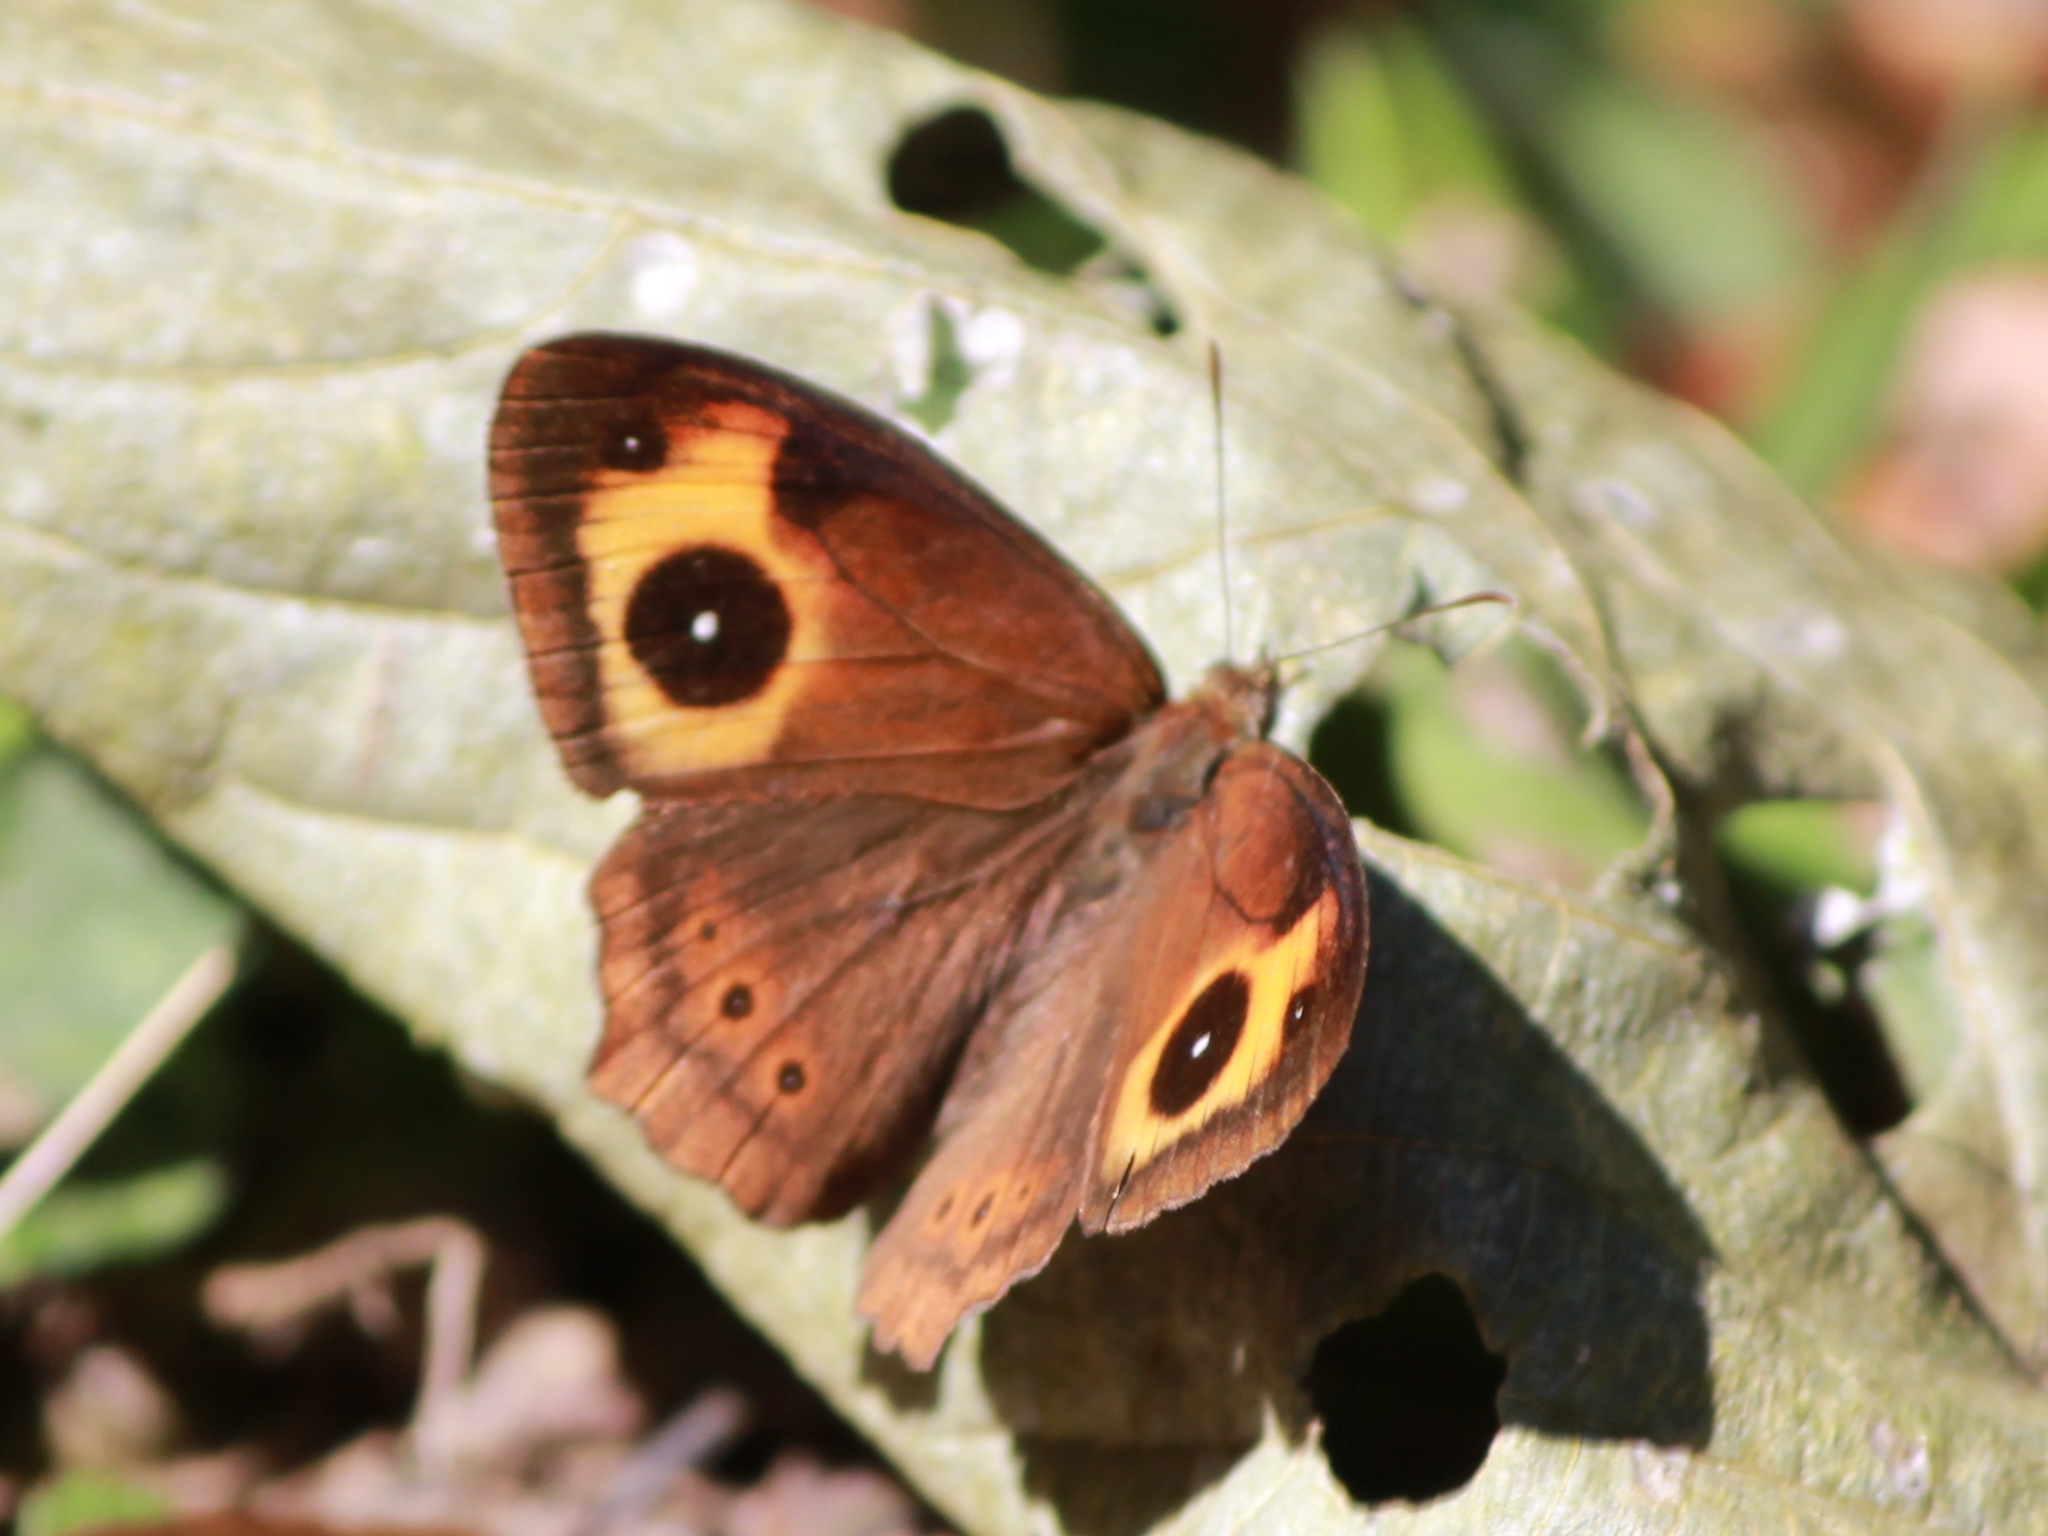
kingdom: Animalia
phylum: Arthropoda
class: Insecta
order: Lepidoptera
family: Nymphalidae
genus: Mycalesis
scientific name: Mycalesis Telinga oculus
